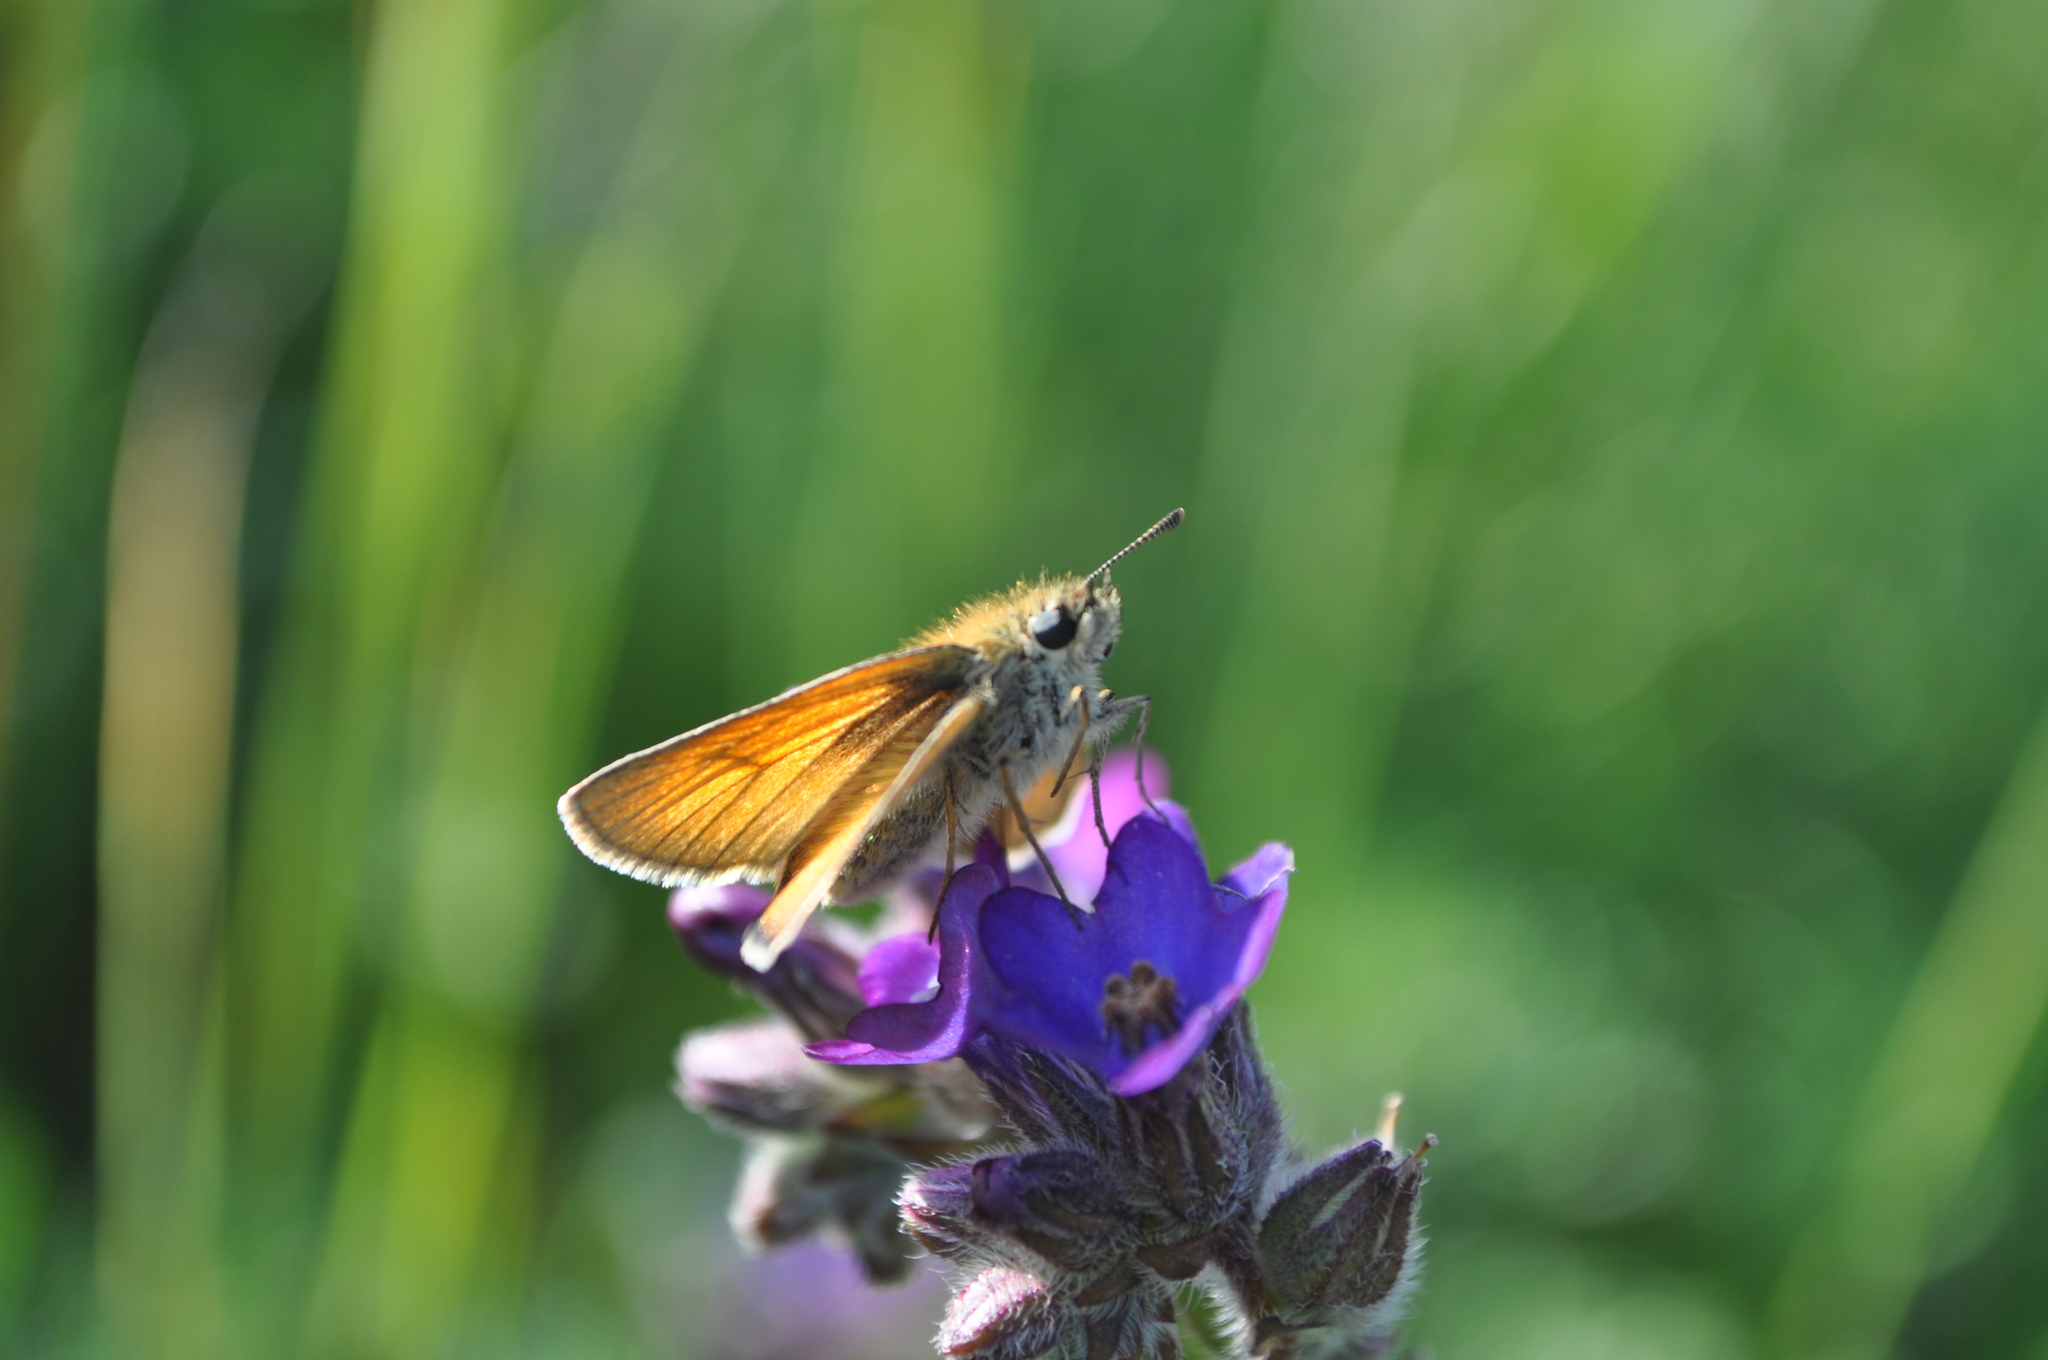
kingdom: Animalia
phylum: Arthropoda
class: Insecta
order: Lepidoptera
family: Hesperiidae
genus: Thymelicus
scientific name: Thymelicus sylvestris
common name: Small skipper
